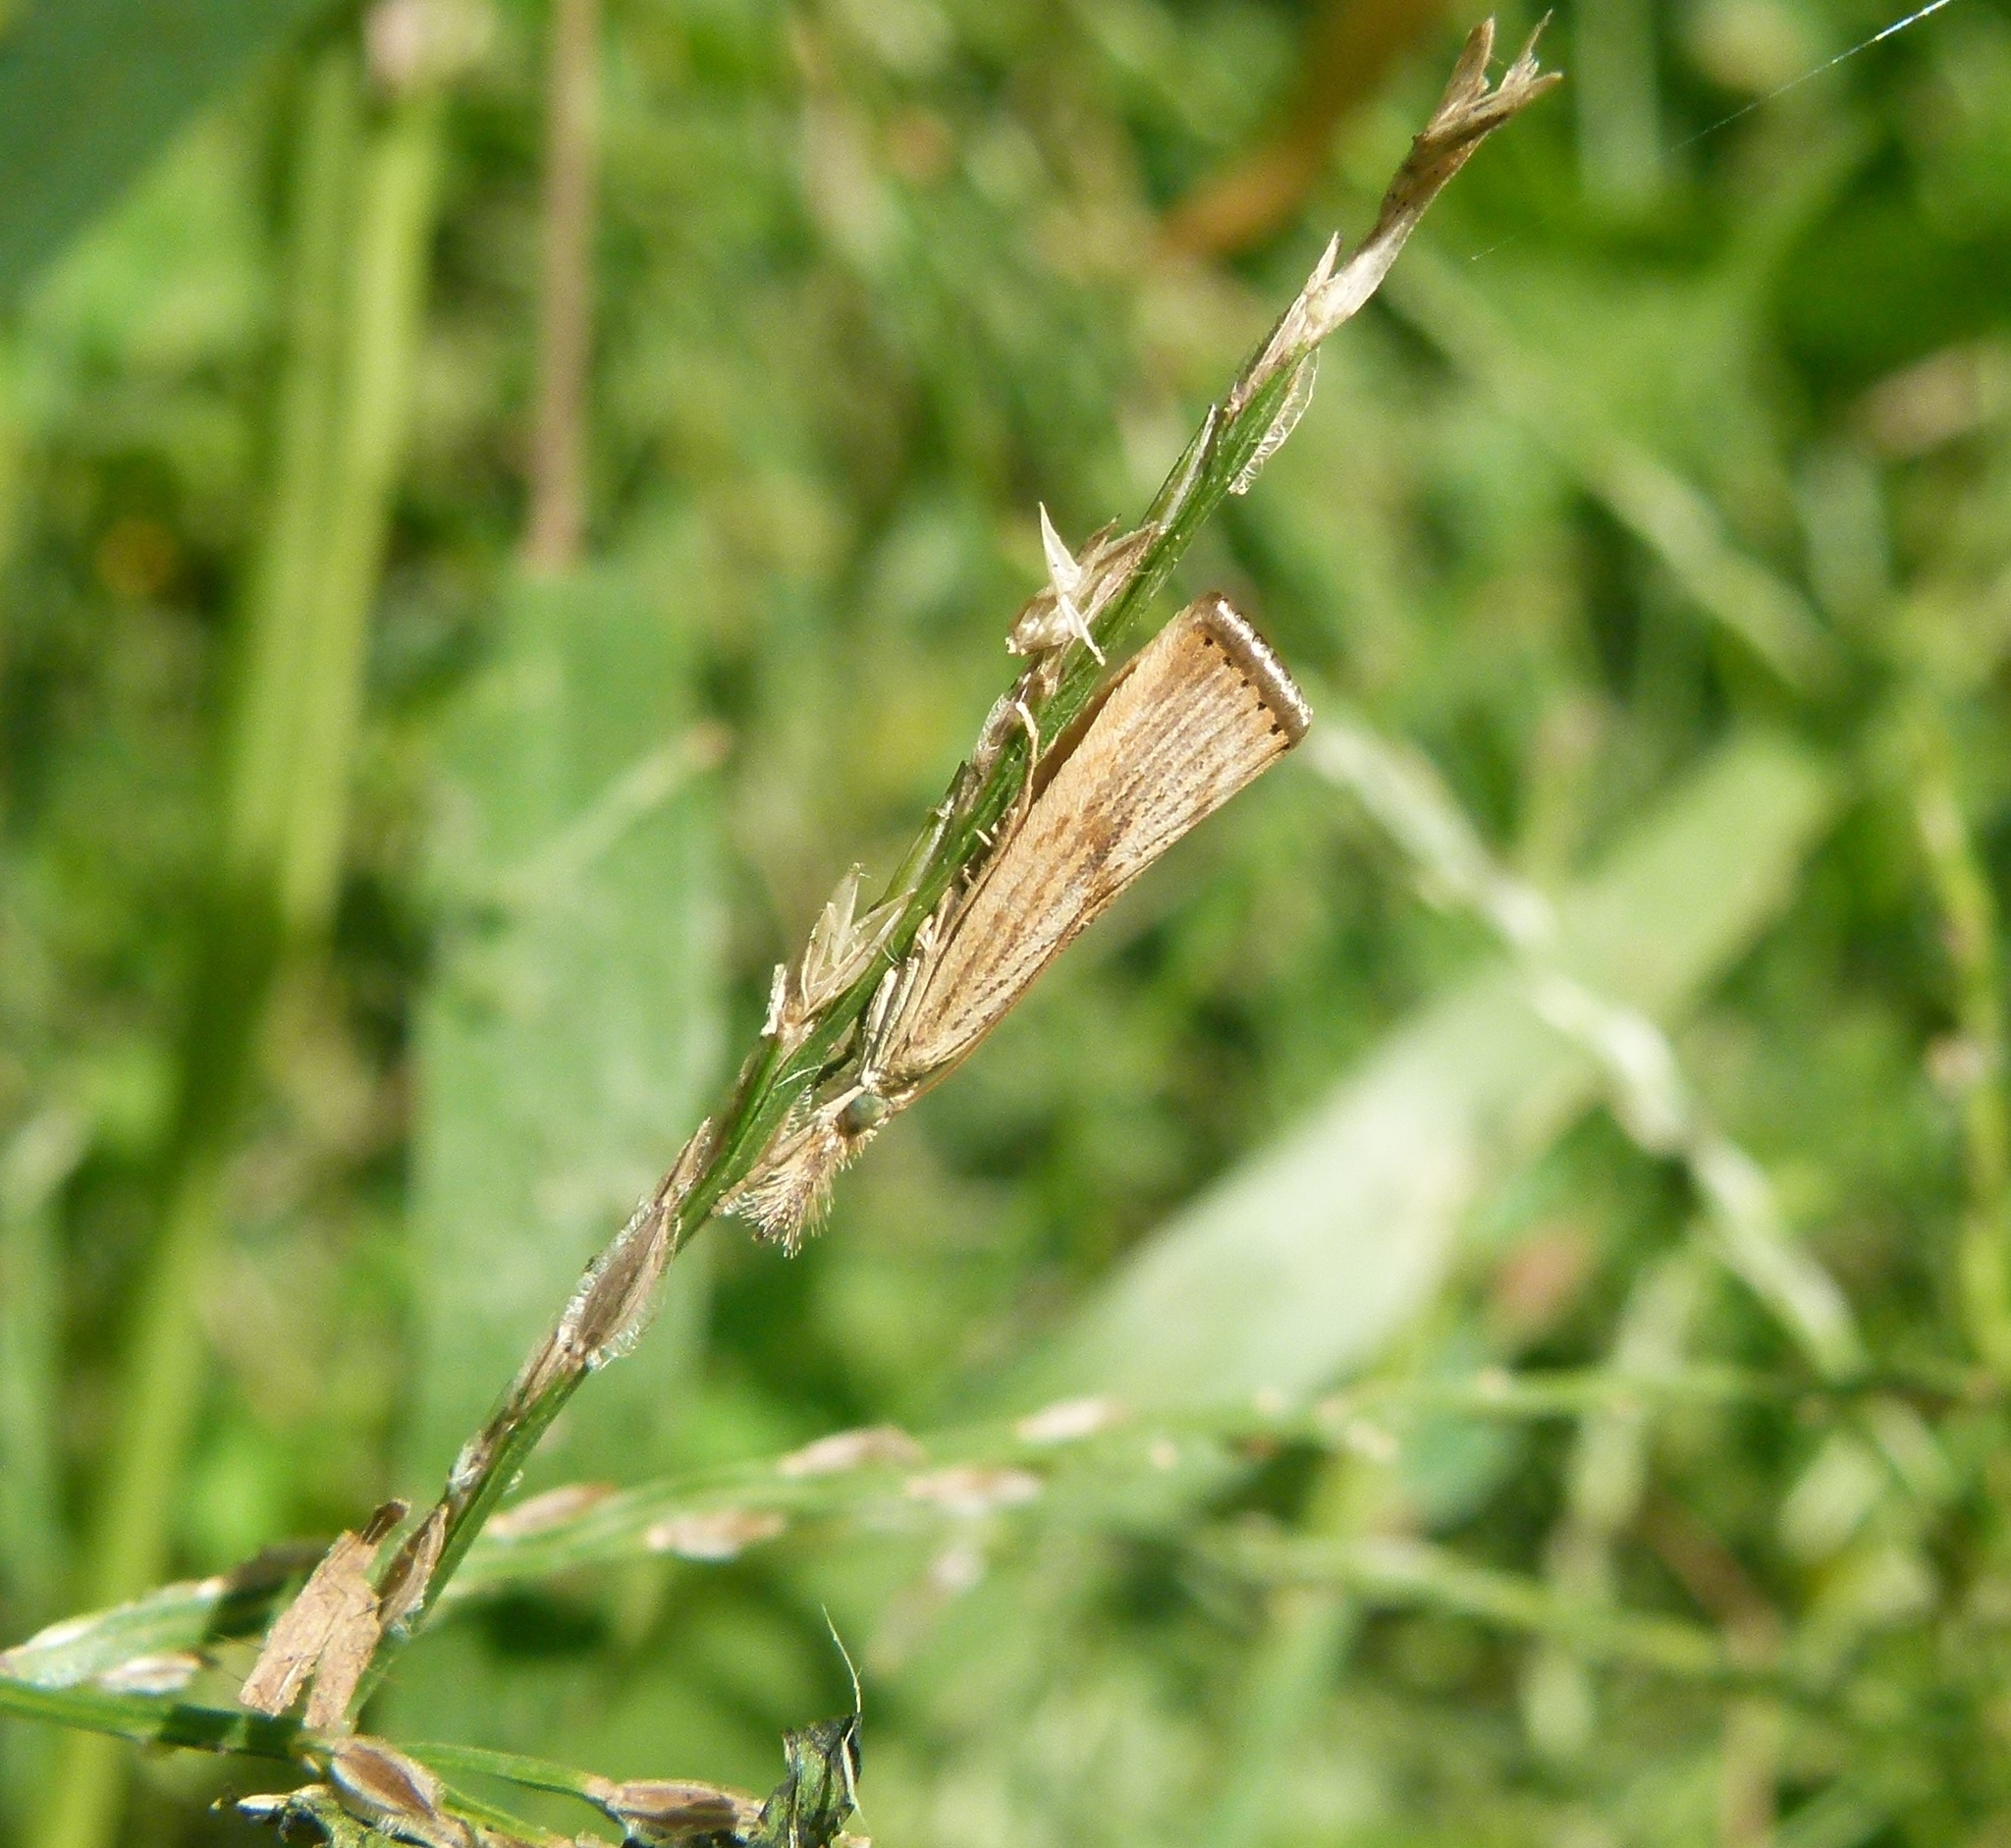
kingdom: Animalia
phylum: Arthropoda
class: Insecta
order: Lepidoptera
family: Crambidae
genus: Agriphila
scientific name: Agriphila ruricolellus
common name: Lesser vagabond sod webworm
